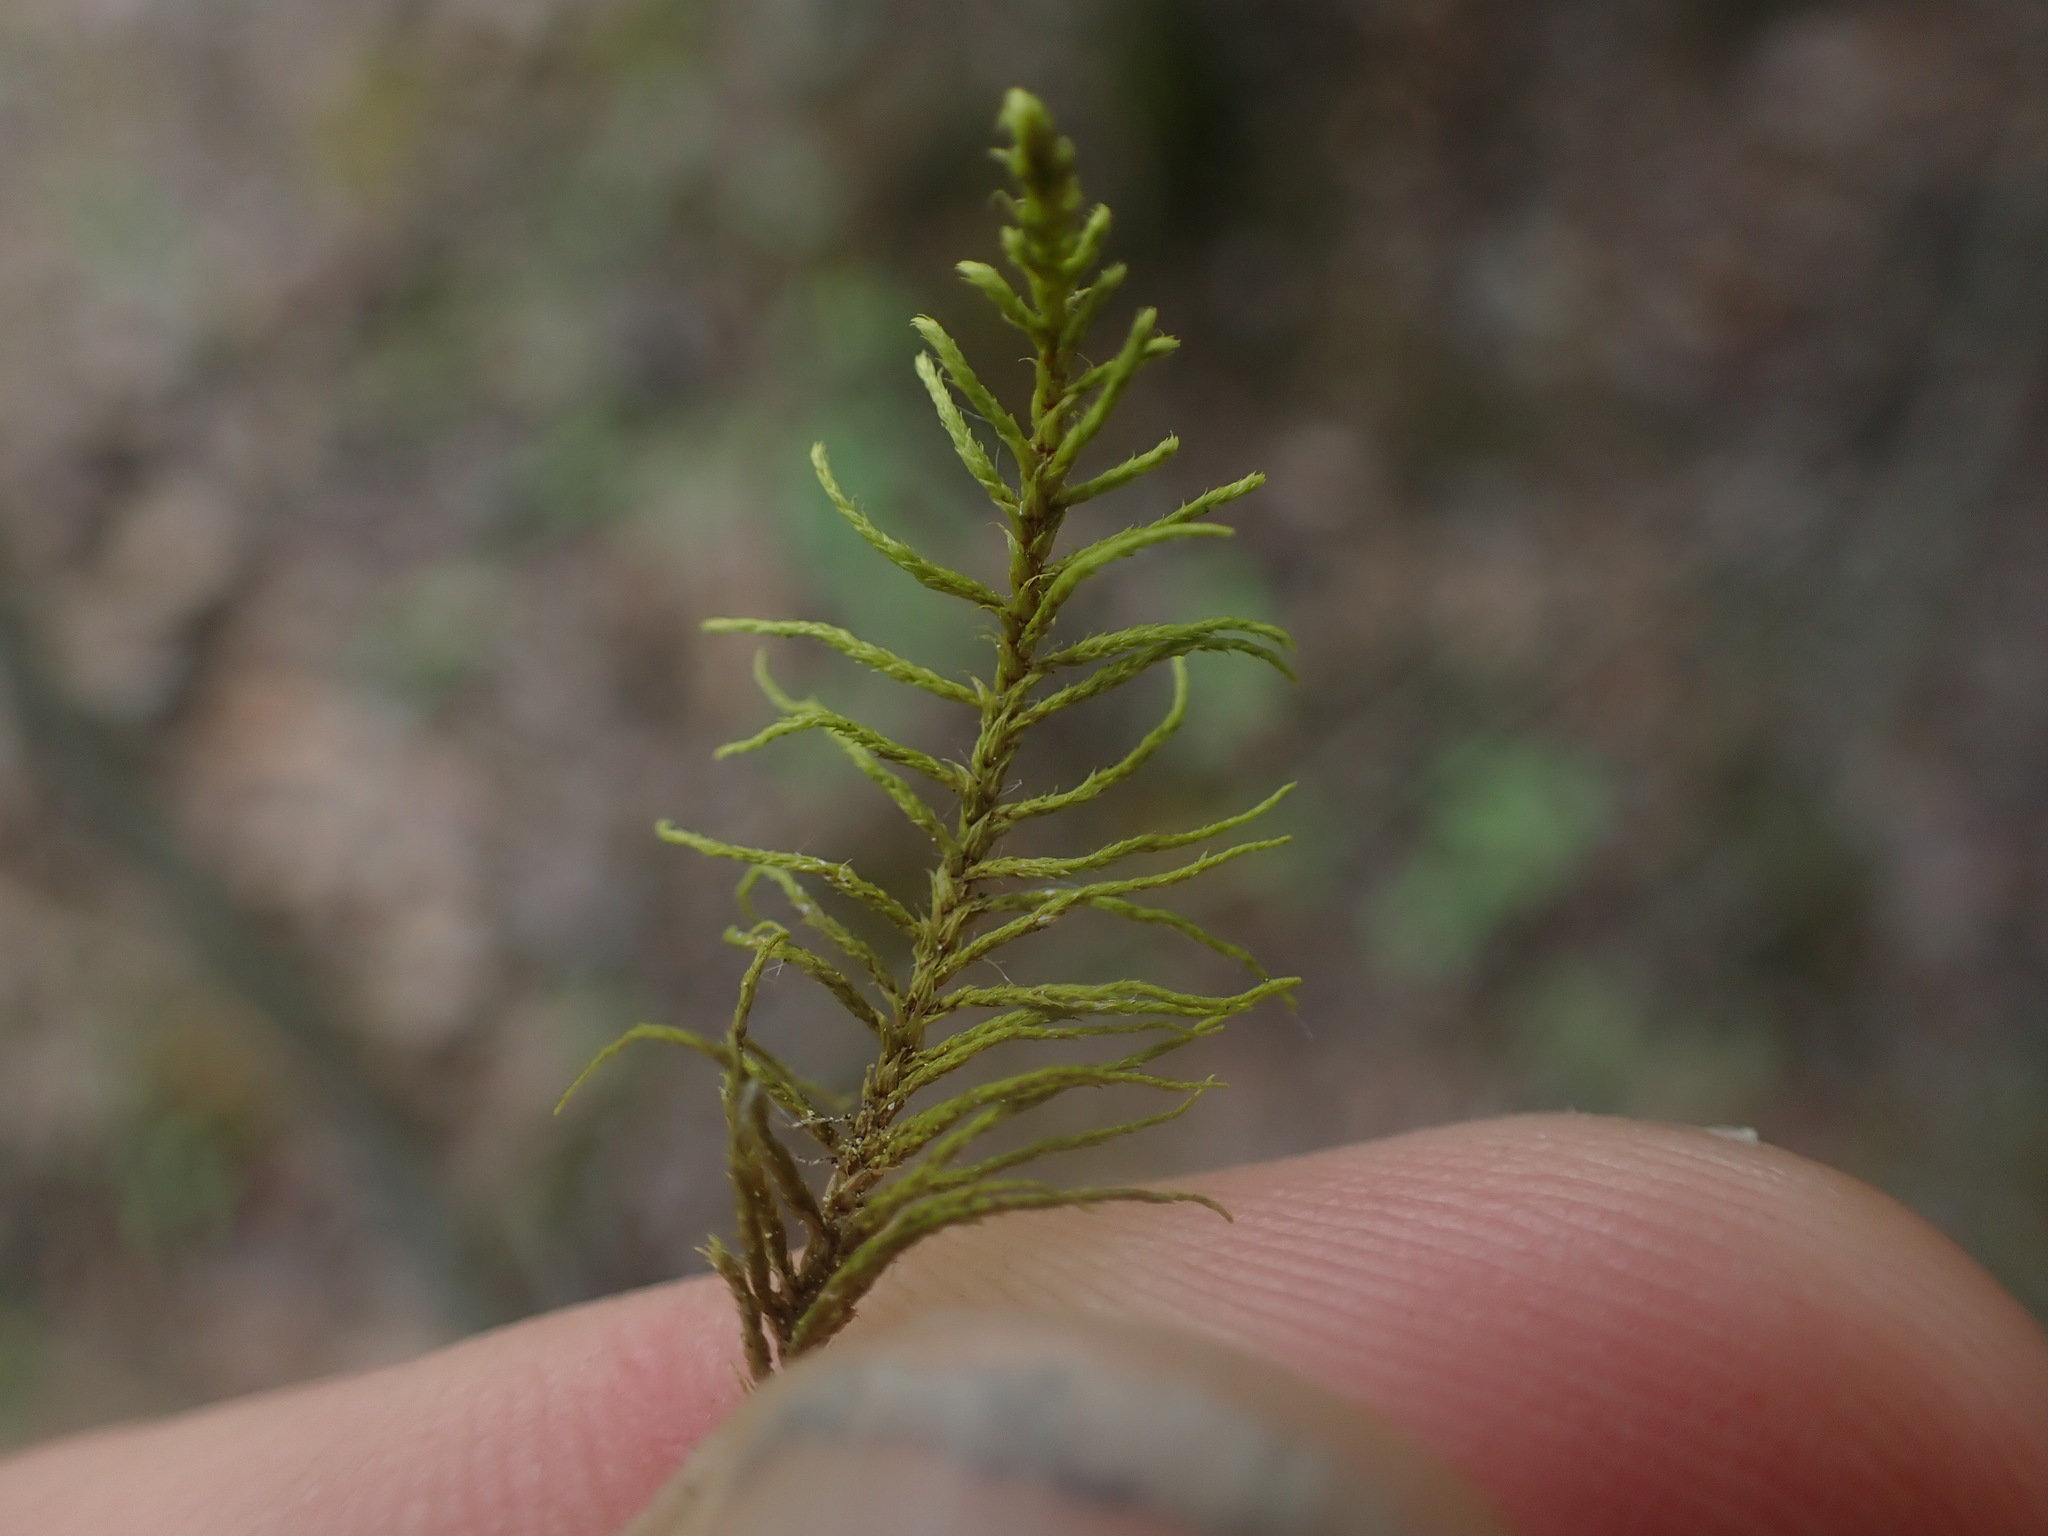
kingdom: Plantae
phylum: Bryophyta
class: Bryopsida
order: Hypnales
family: Thuidiaceae
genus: Abietinella
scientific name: Abietinella abietina
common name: Wiry fern moss
